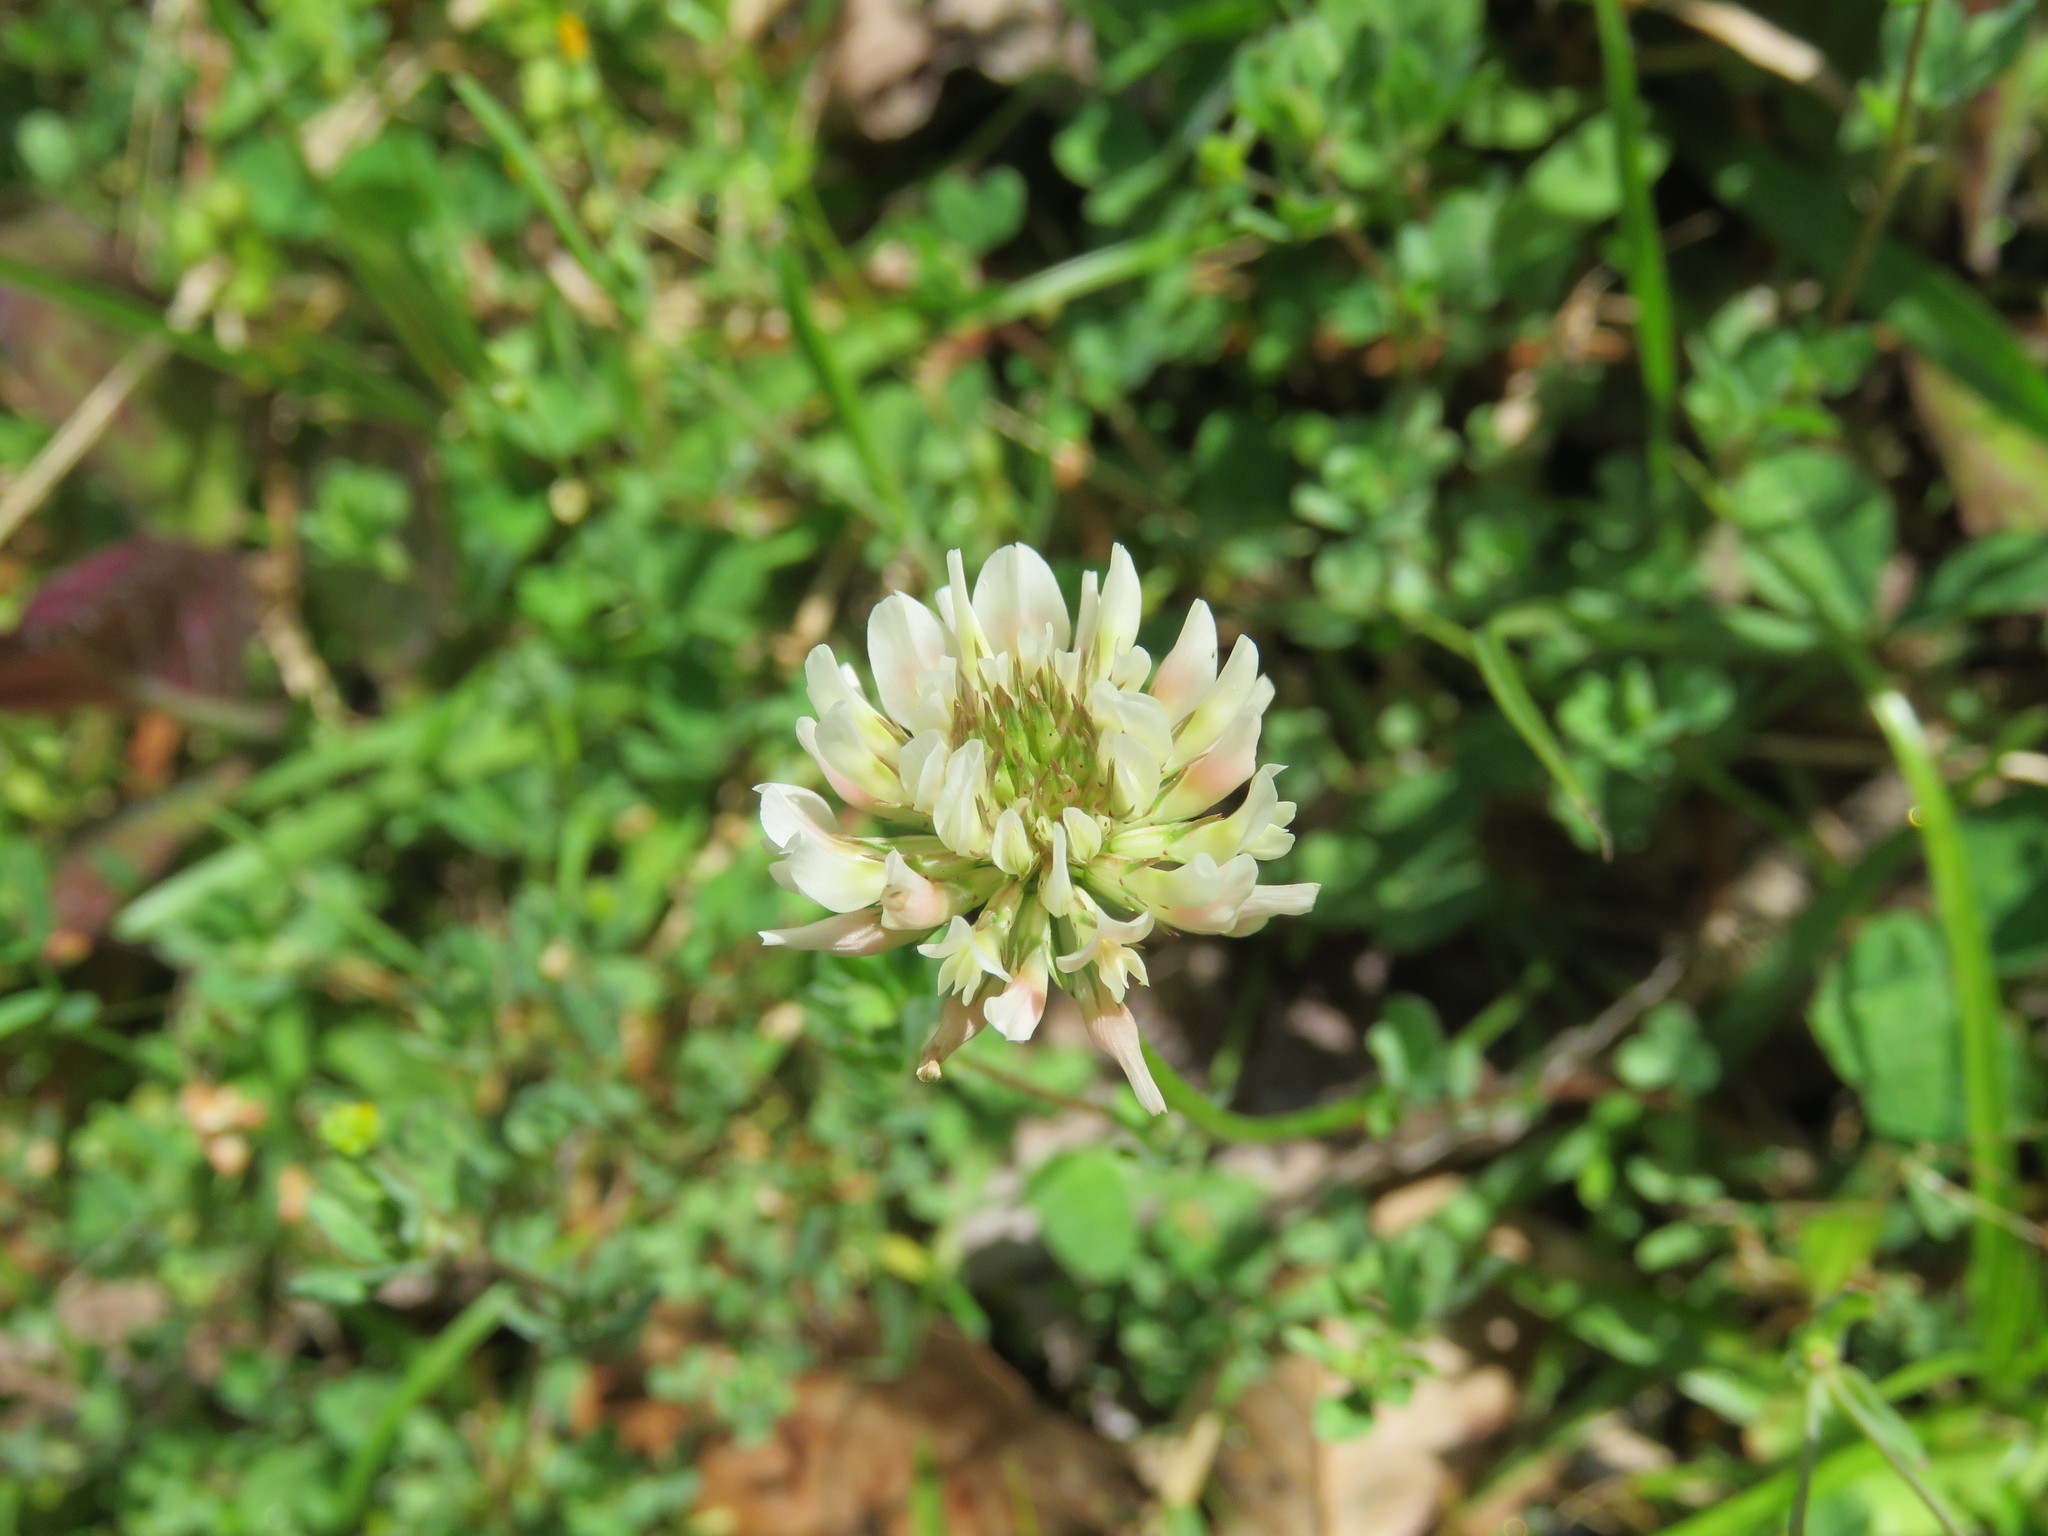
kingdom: Plantae
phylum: Tracheophyta
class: Magnoliopsida
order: Fabales
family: Fabaceae
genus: Trifolium
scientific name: Trifolium repens
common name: White clover
